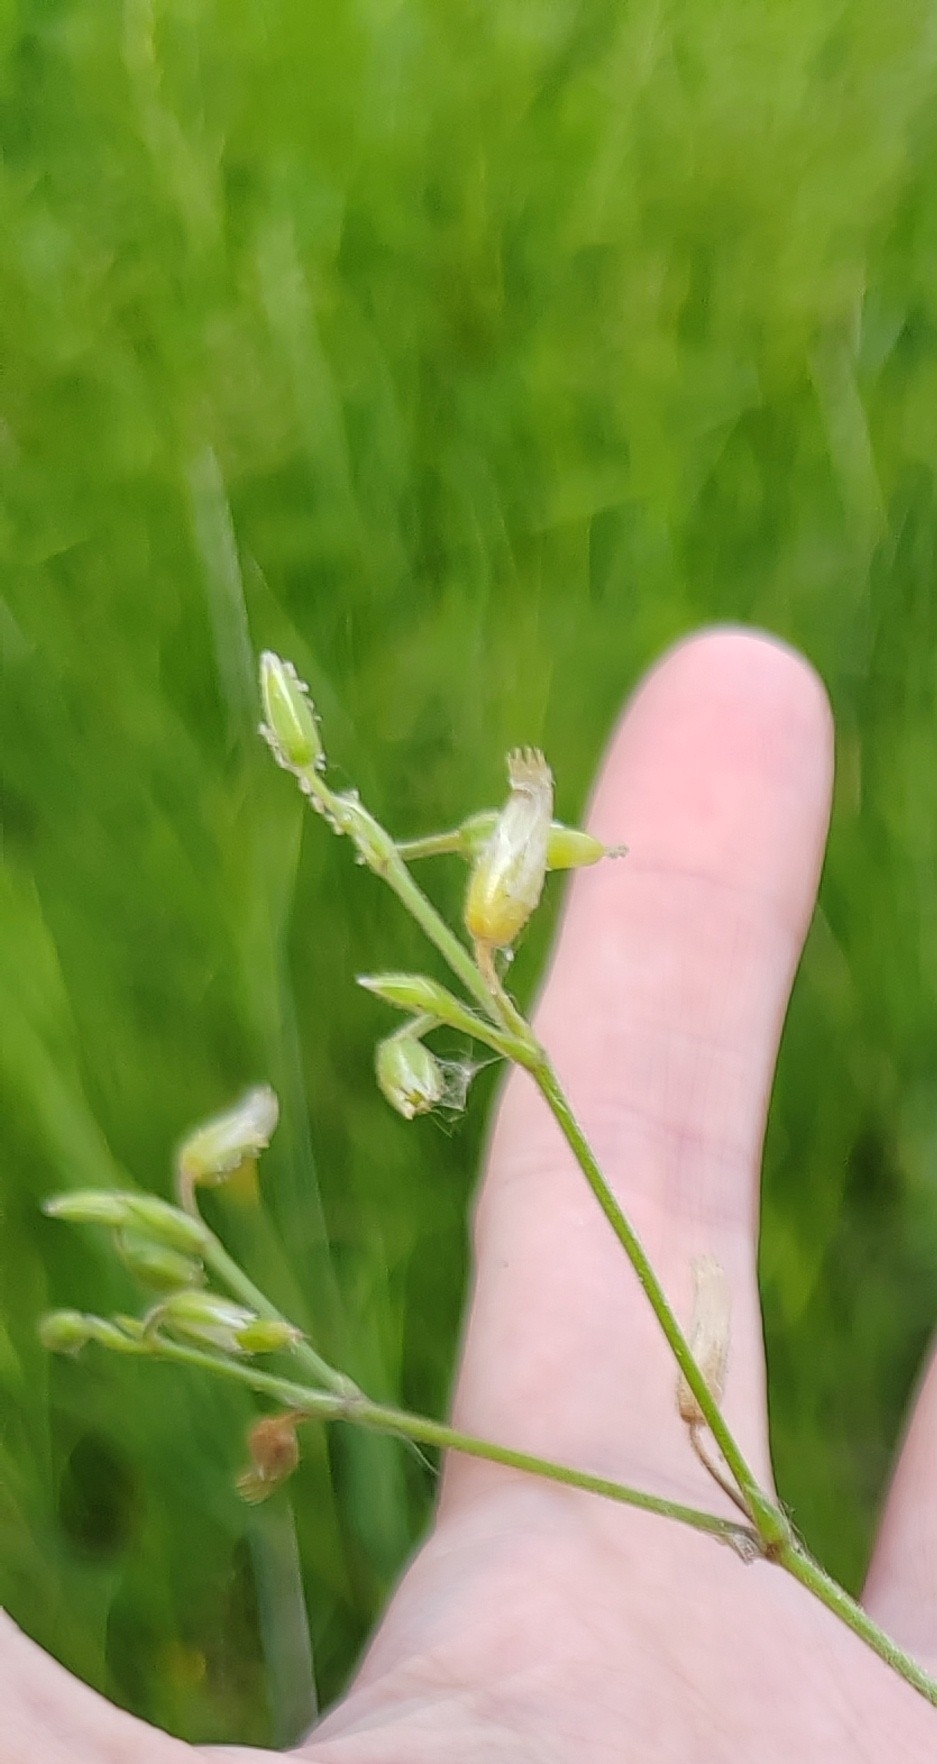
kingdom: Plantae
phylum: Tracheophyta
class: Magnoliopsida
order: Caryophyllales
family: Caryophyllaceae
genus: Cerastium
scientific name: Cerastium holosteoides
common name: Big chickweed
